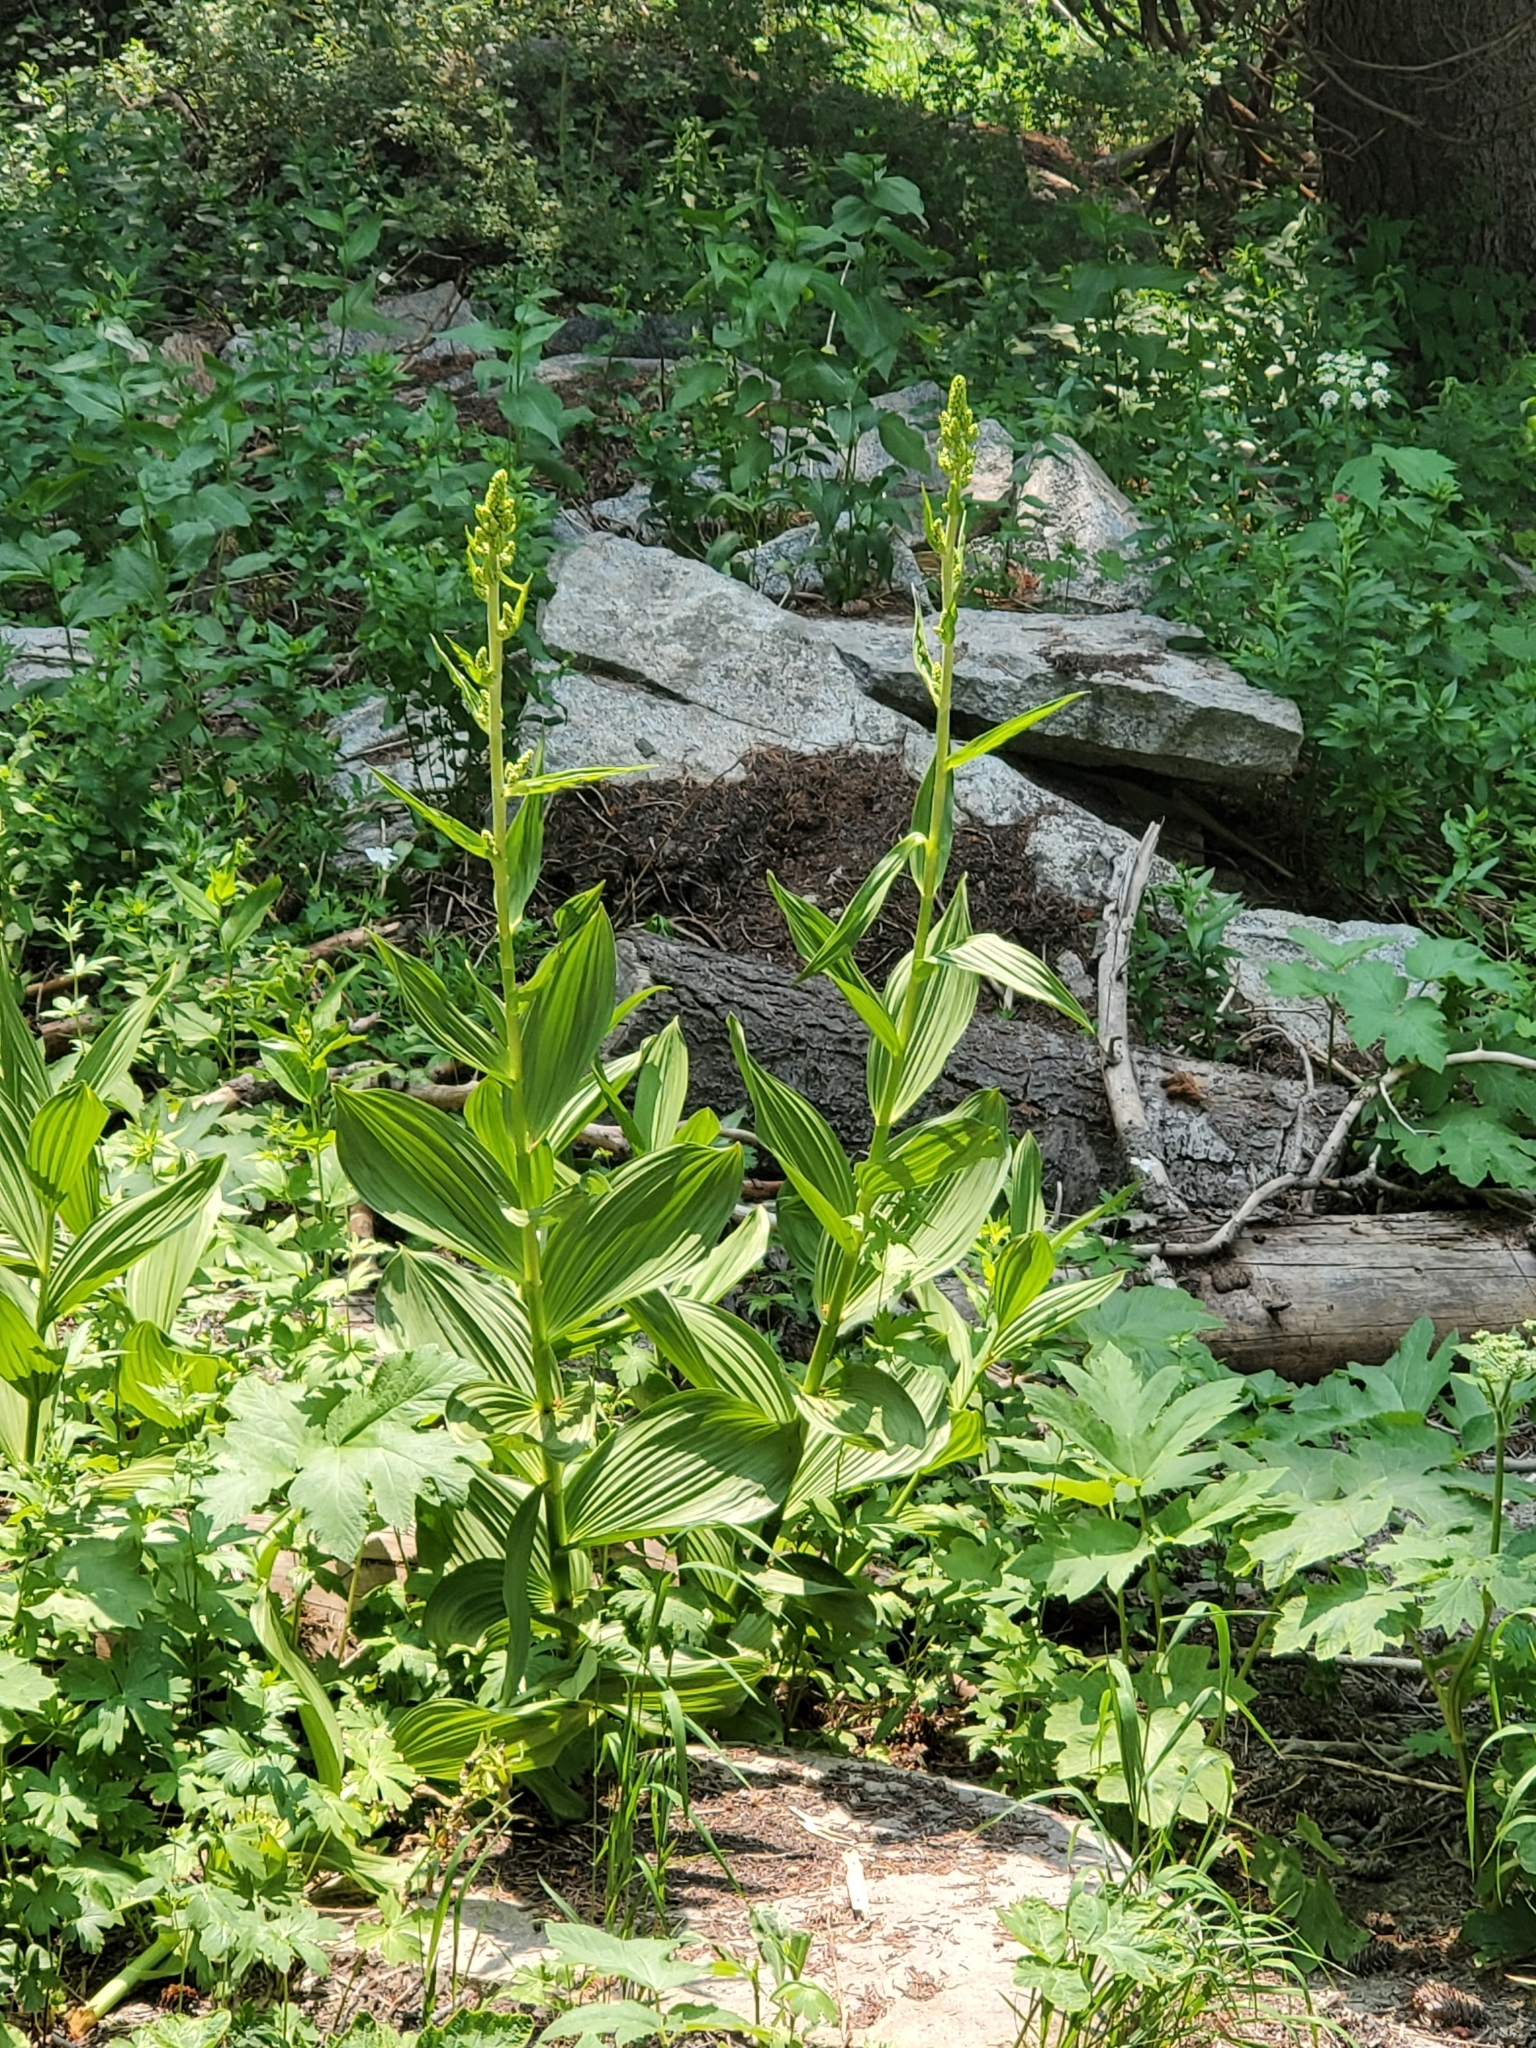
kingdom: Plantae
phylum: Tracheophyta
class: Liliopsida
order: Liliales
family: Melanthiaceae
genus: Veratrum
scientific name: Veratrum californicum
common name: California veratrum
